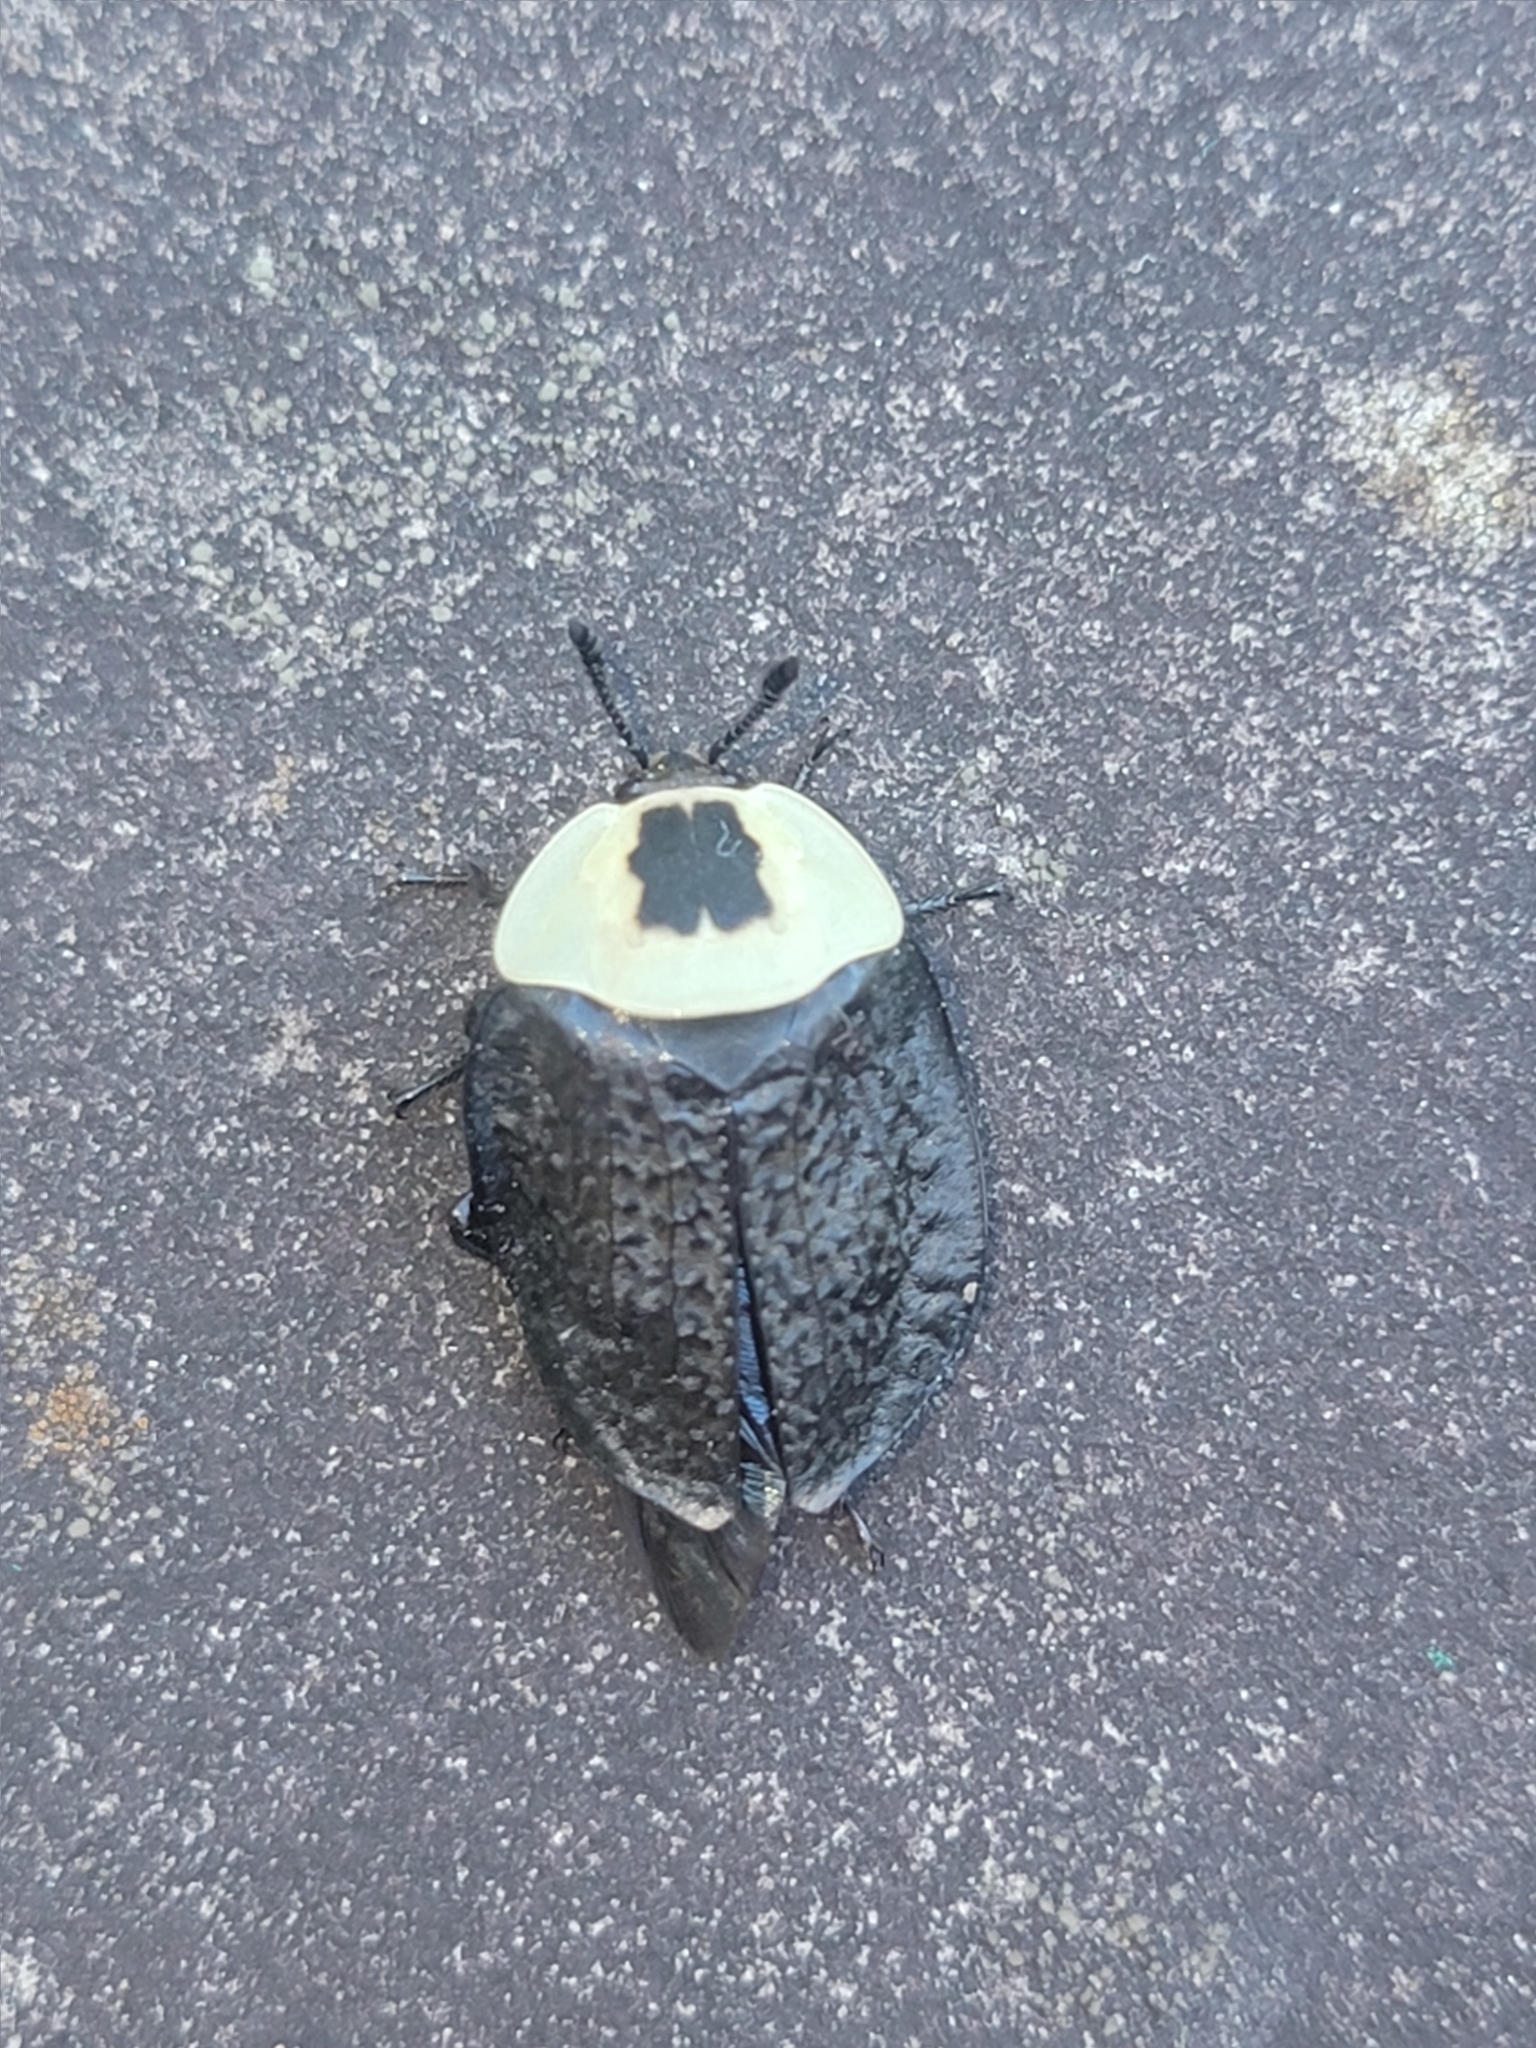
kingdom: Animalia
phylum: Arthropoda
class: Insecta
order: Coleoptera
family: Staphylinidae
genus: Necrophila
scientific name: Necrophila americana
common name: American carrion beetle
